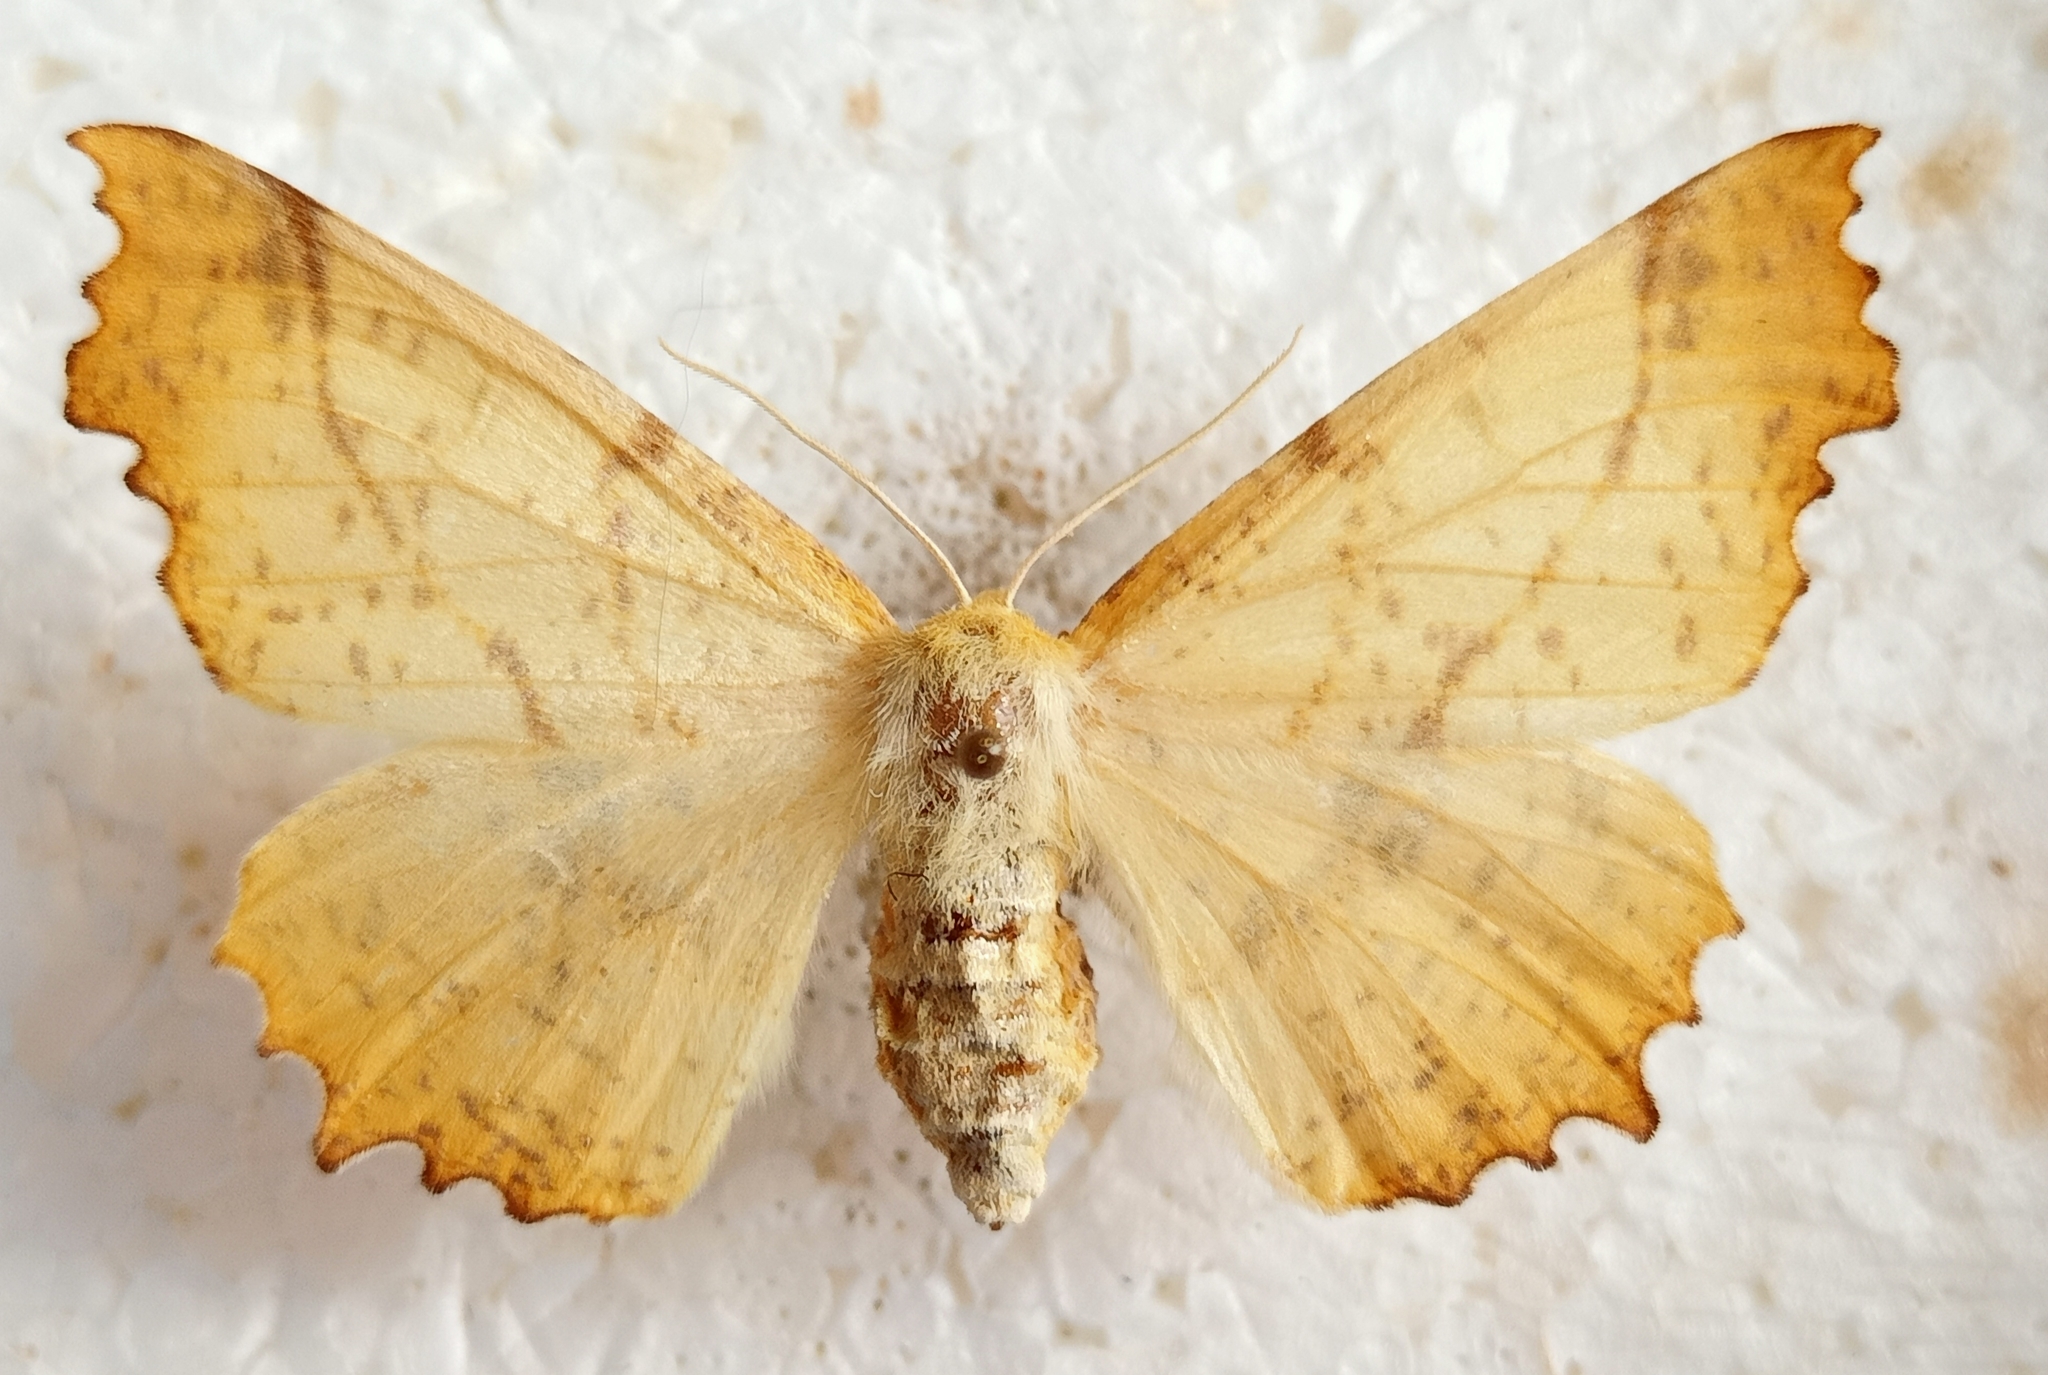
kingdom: Animalia
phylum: Arthropoda
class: Insecta
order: Lepidoptera
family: Geometridae
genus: Ennomos
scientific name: Ennomos autumnaria
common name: Large thorn
